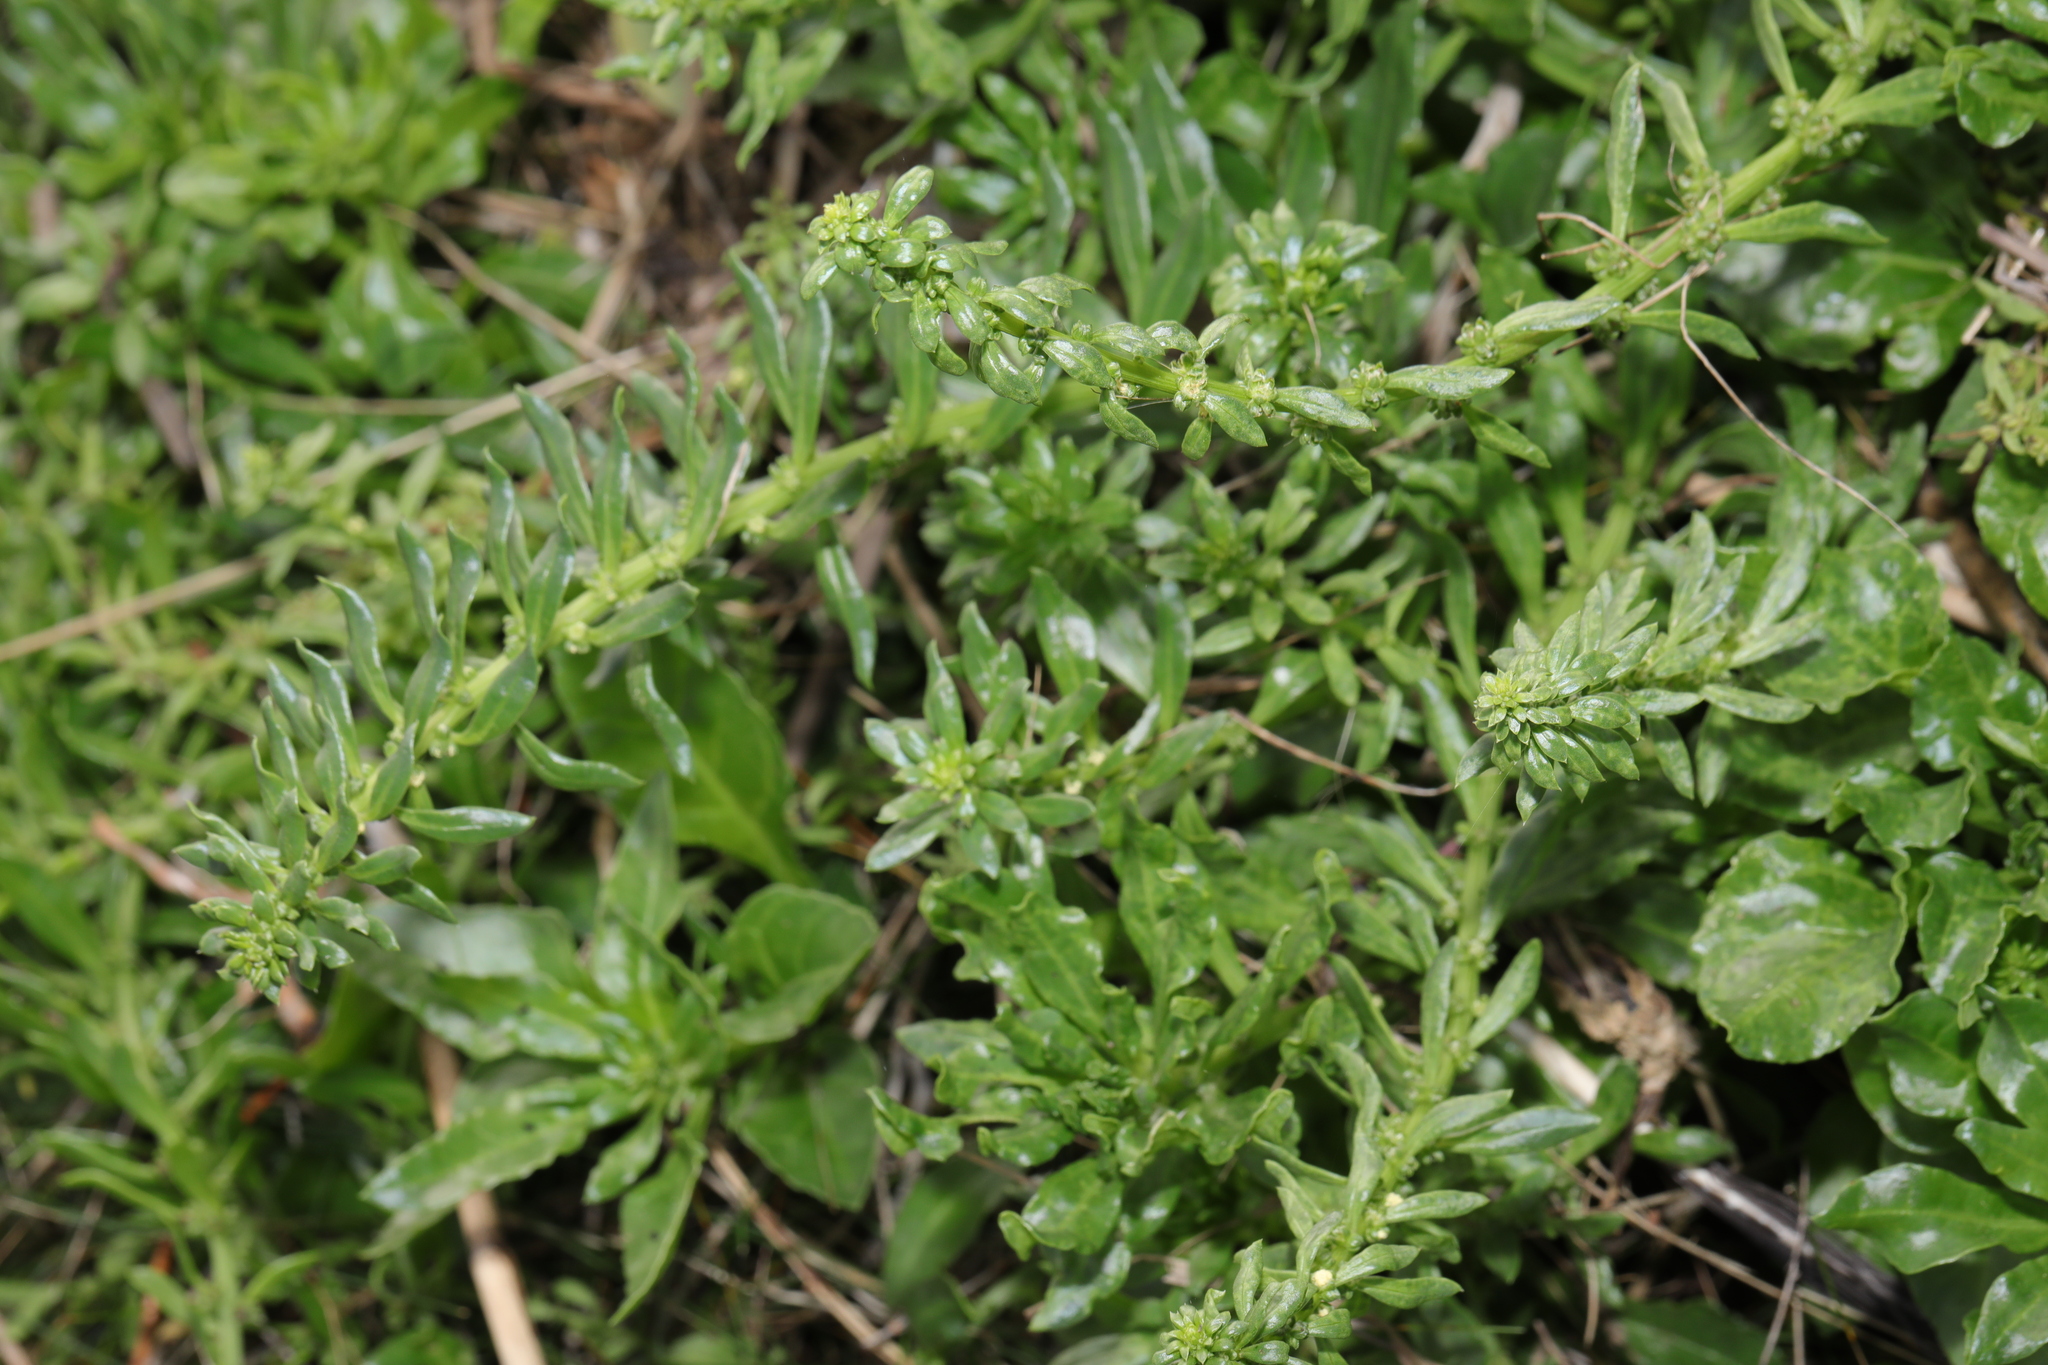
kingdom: Plantae
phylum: Tracheophyta
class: Magnoliopsida
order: Caryophyllales
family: Amaranthaceae
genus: Beta
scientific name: Beta vulgaris
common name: Beet
